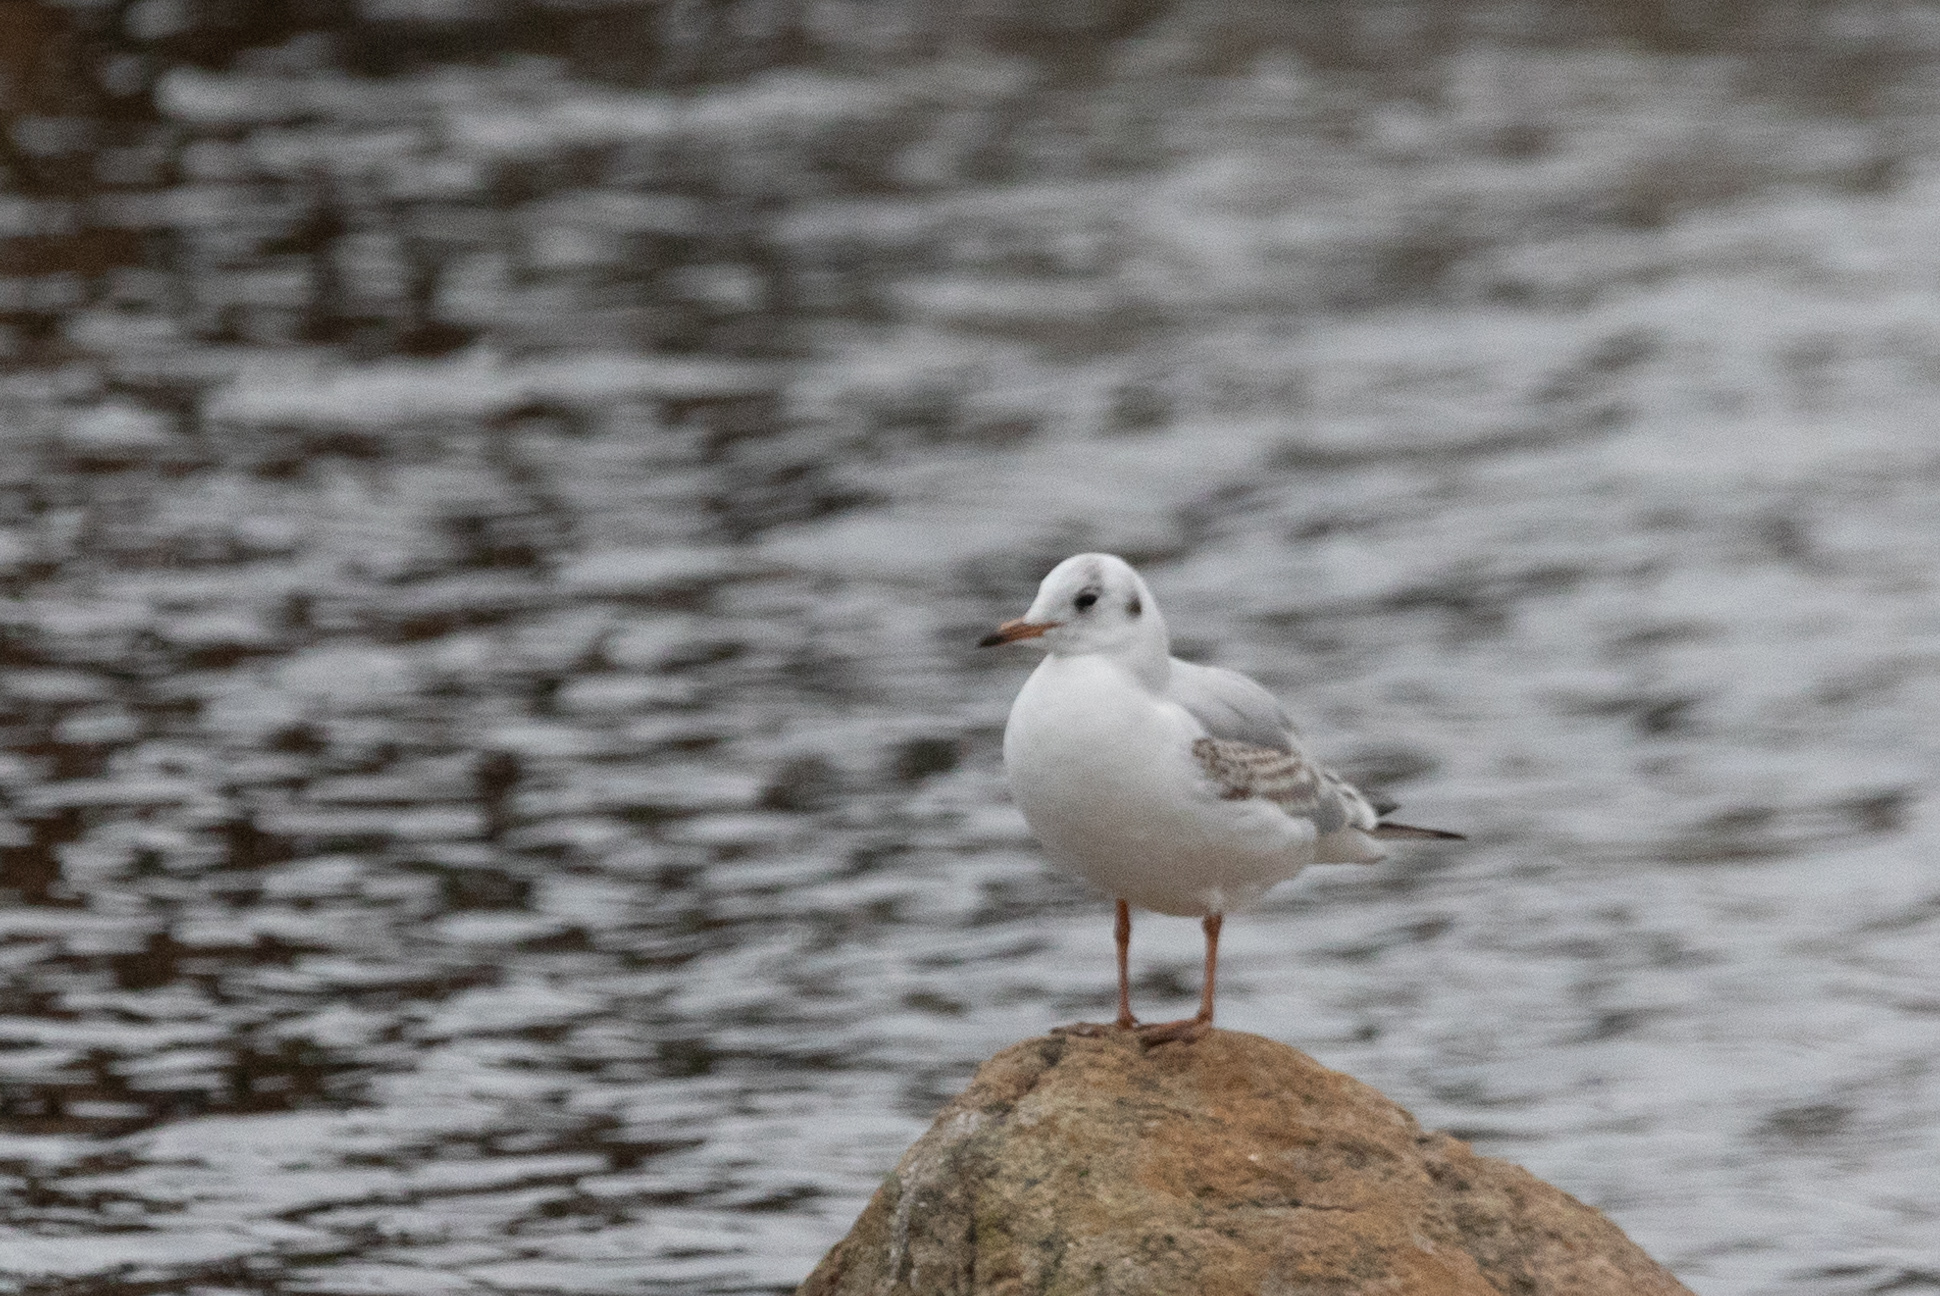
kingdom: Animalia
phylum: Chordata
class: Aves
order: Charadriiformes
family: Laridae
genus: Chroicocephalus
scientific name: Chroicocephalus ridibundus
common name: Black-headed gull
